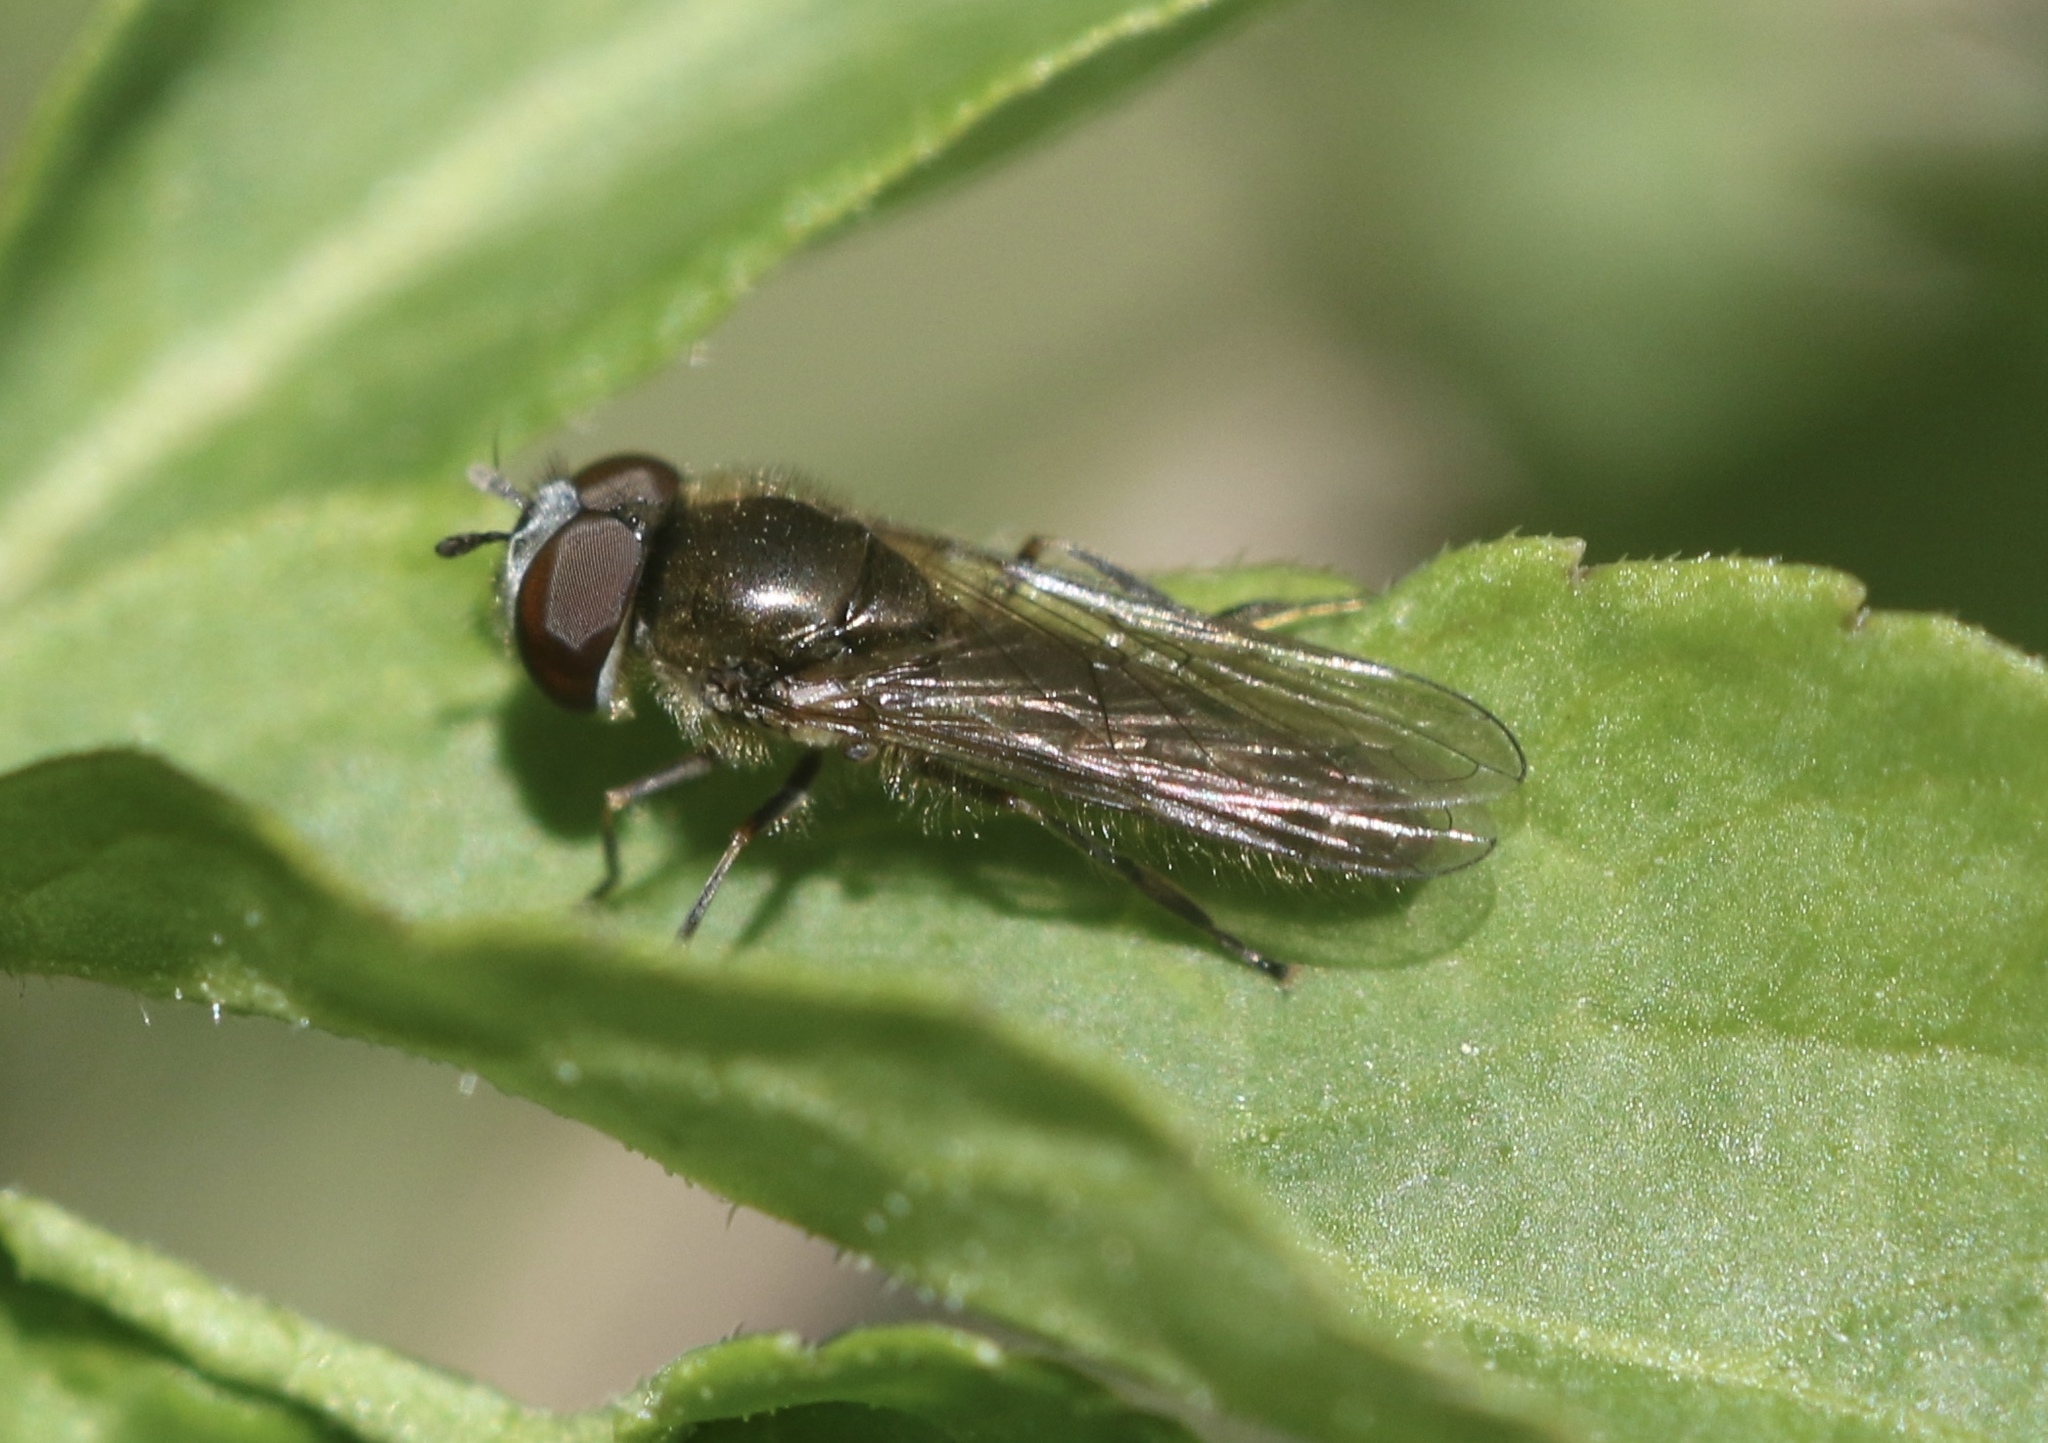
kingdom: Animalia
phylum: Arthropoda
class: Insecta
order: Diptera
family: Syrphidae
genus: Platycheirus
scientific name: Platycheirus ambiguum
